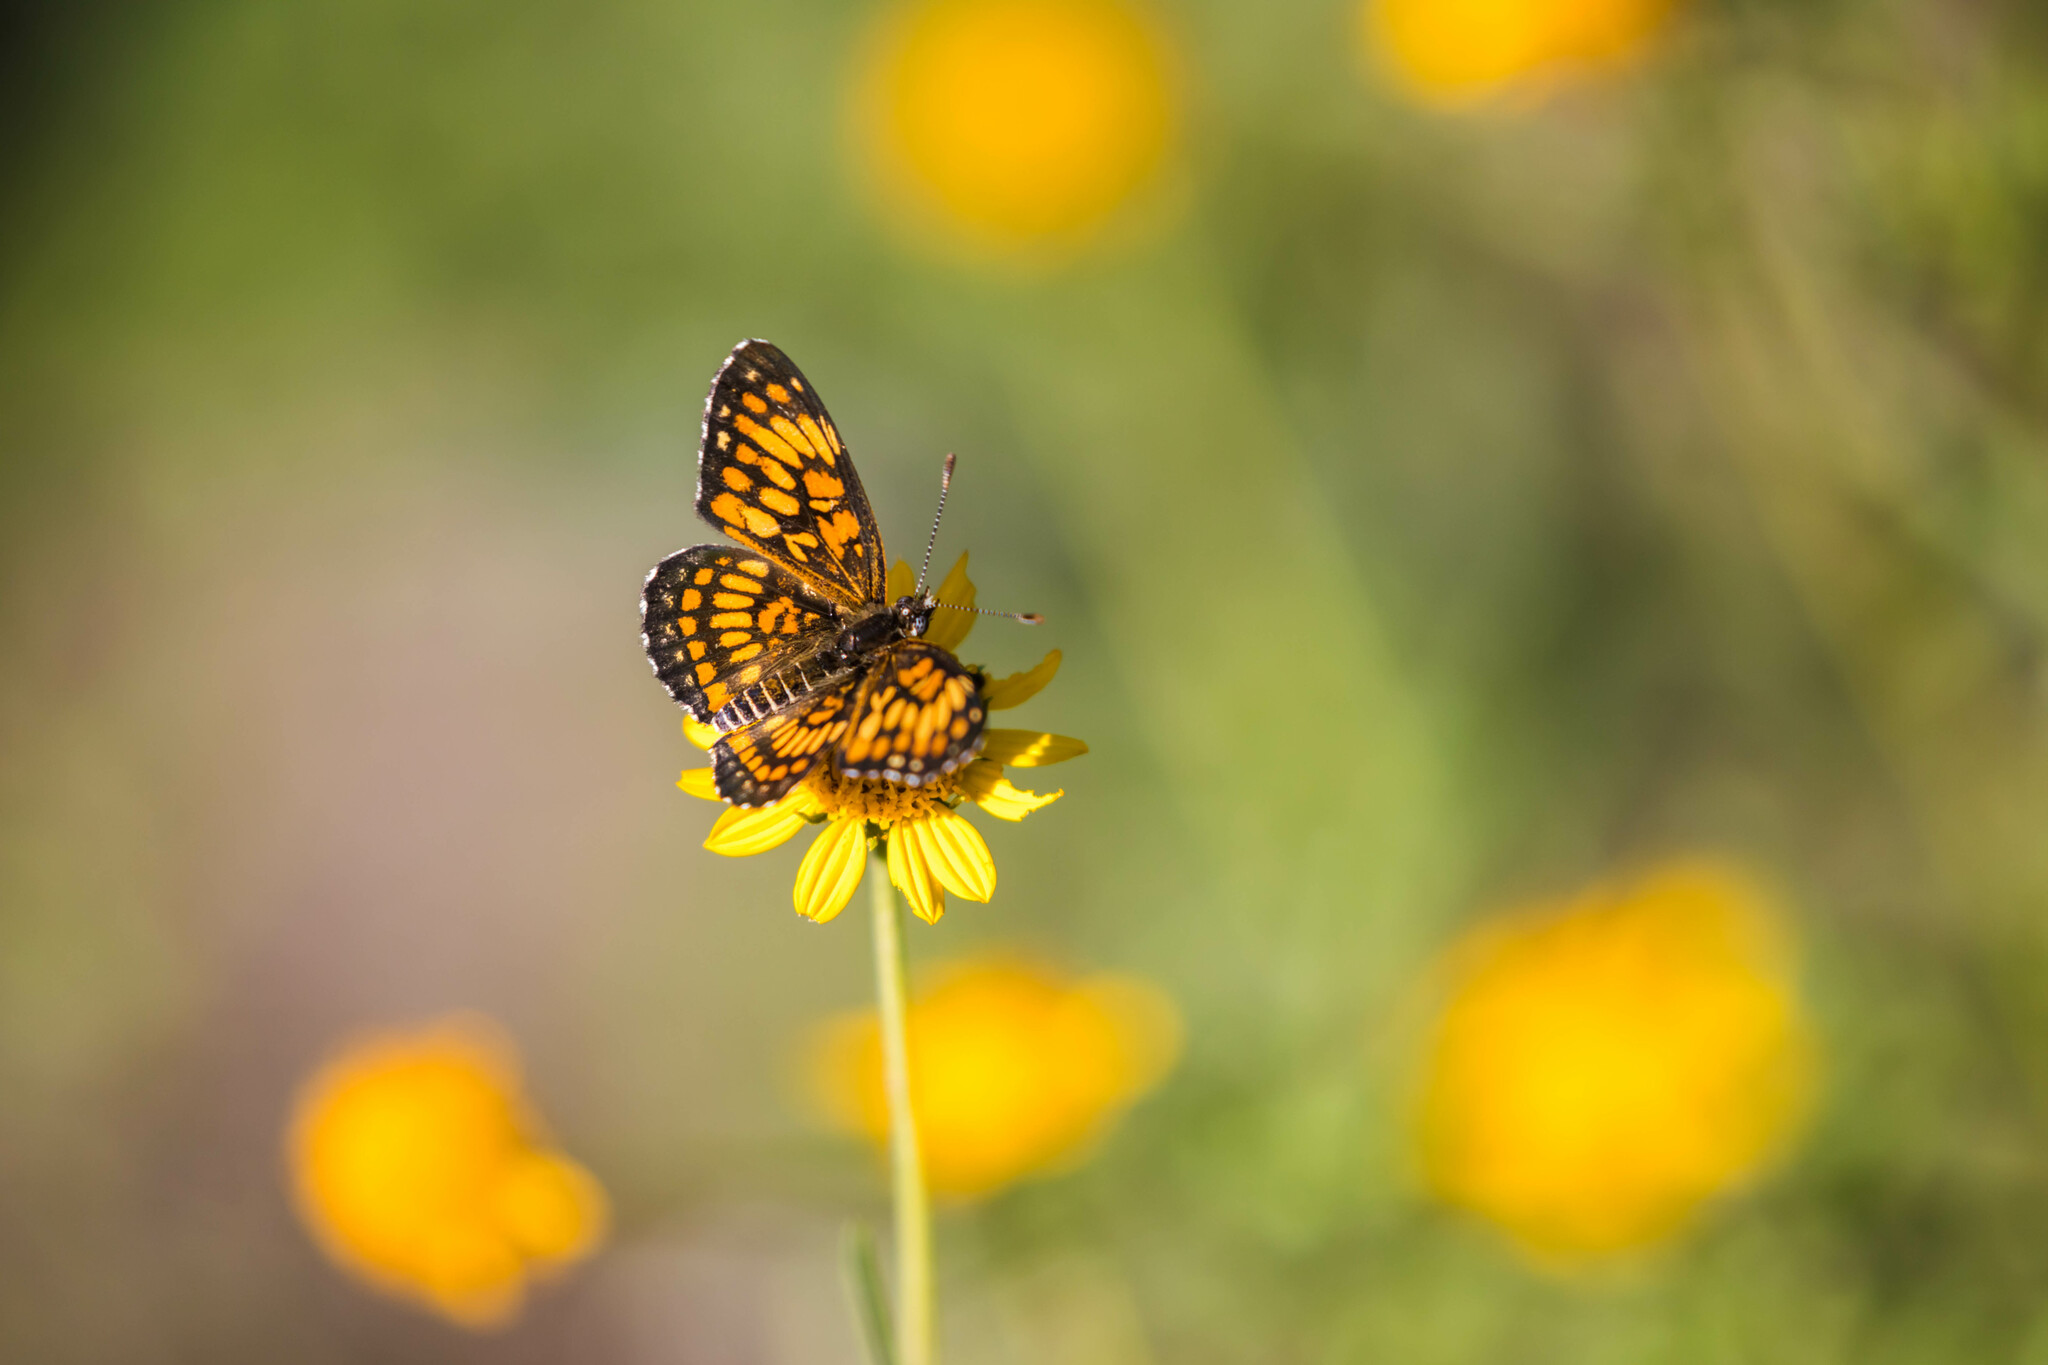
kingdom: Animalia
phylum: Arthropoda
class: Insecta
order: Lepidoptera
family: Nymphalidae
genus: Thessalia
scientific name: Thessalia theona
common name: Nymphalid moth
